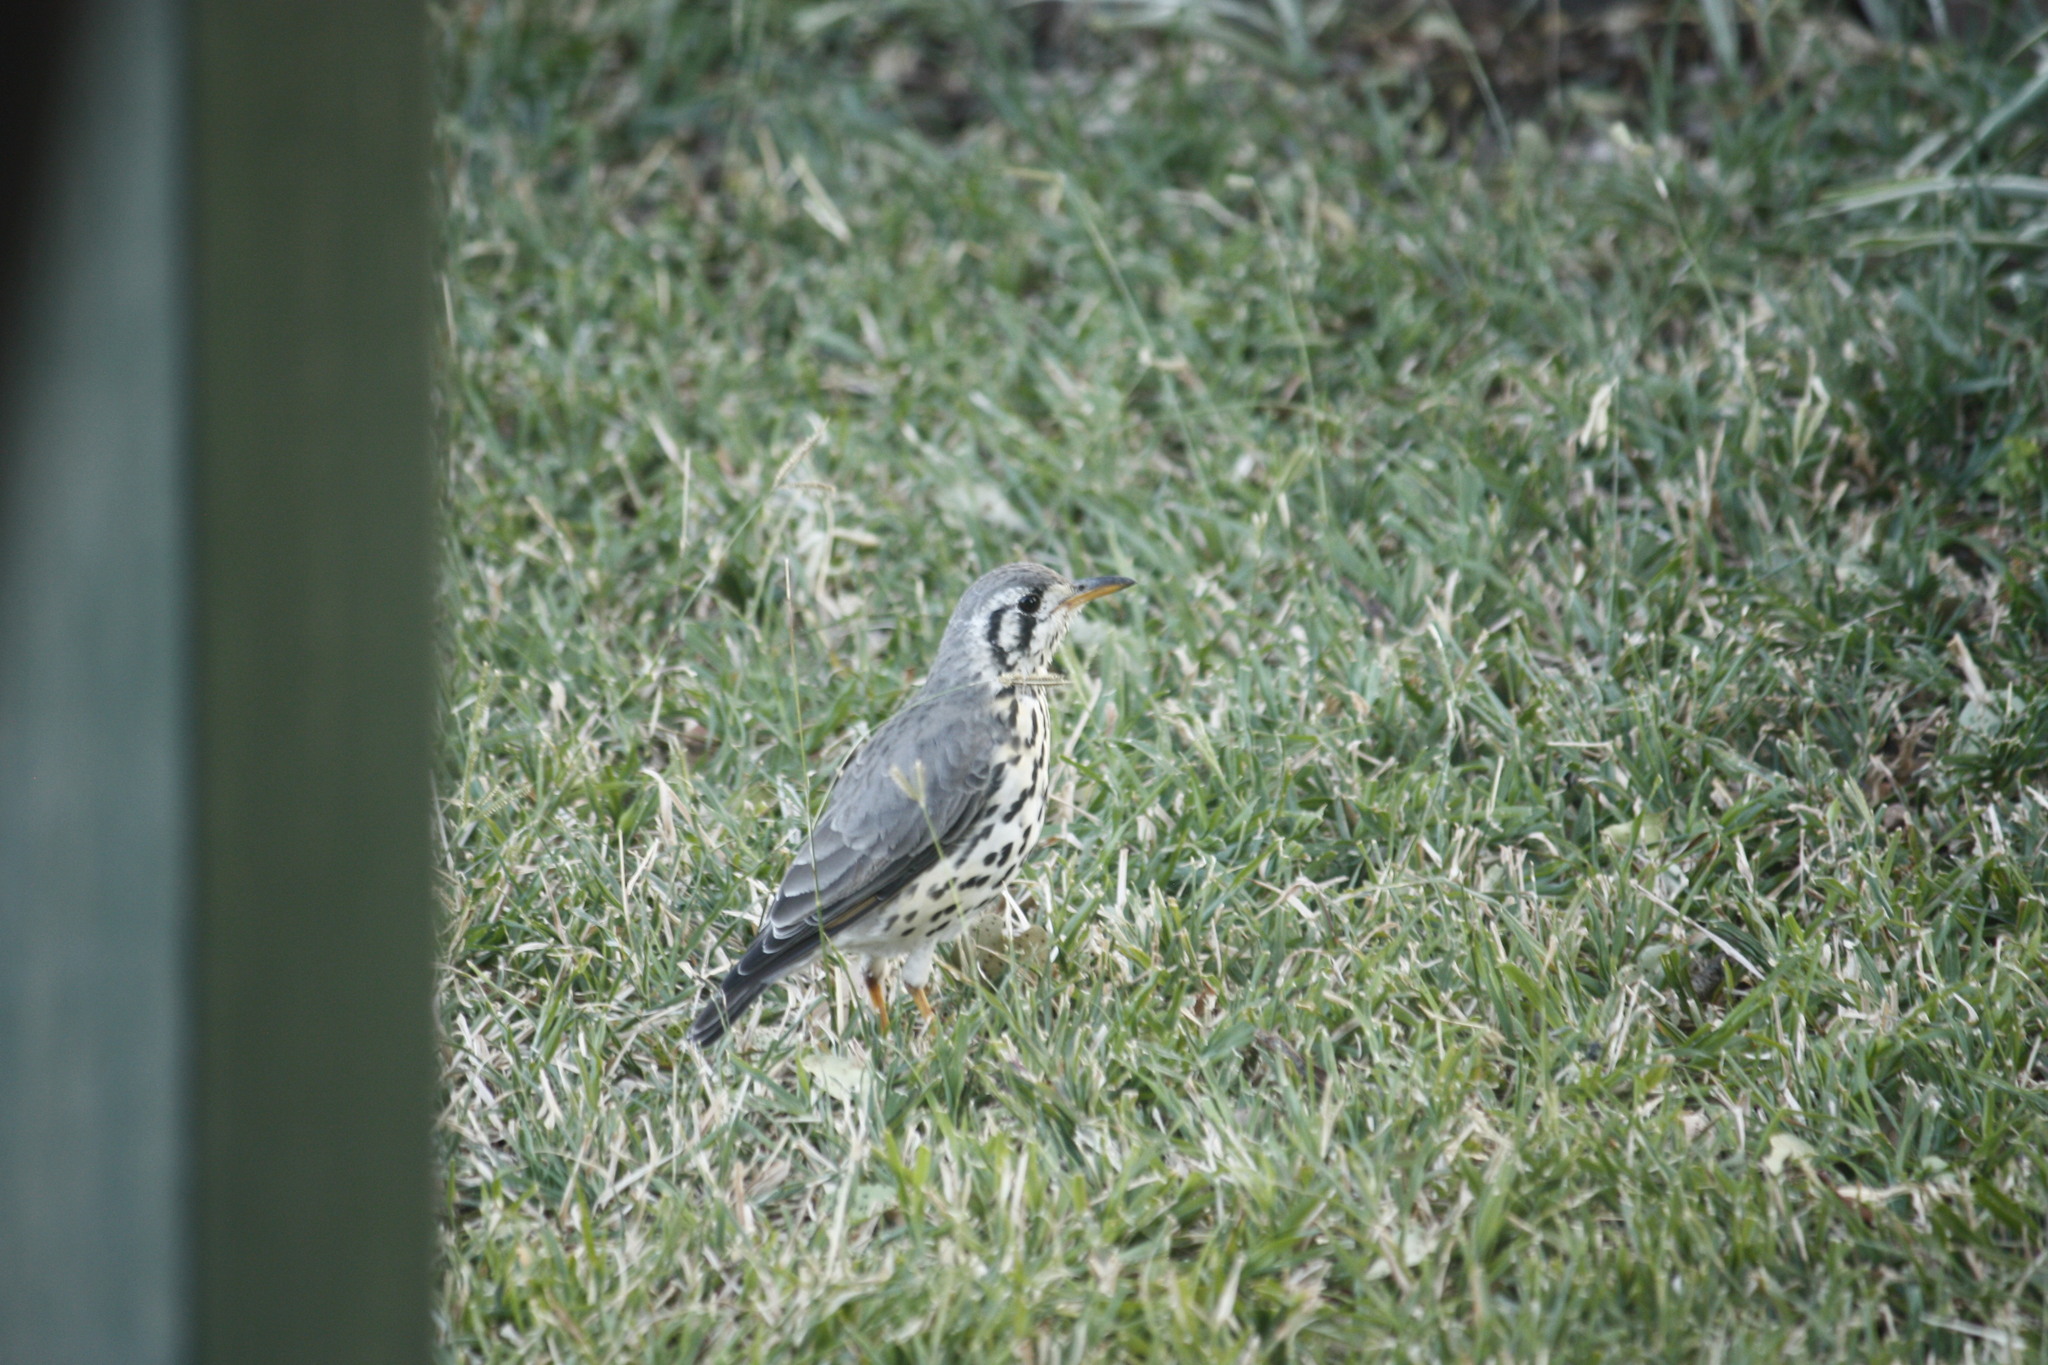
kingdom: Animalia
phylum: Chordata
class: Aves
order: Passeriformes
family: Turdidae
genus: Psophocichla
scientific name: Psophocichla litsitsirupa
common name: Groundscraper thrush
